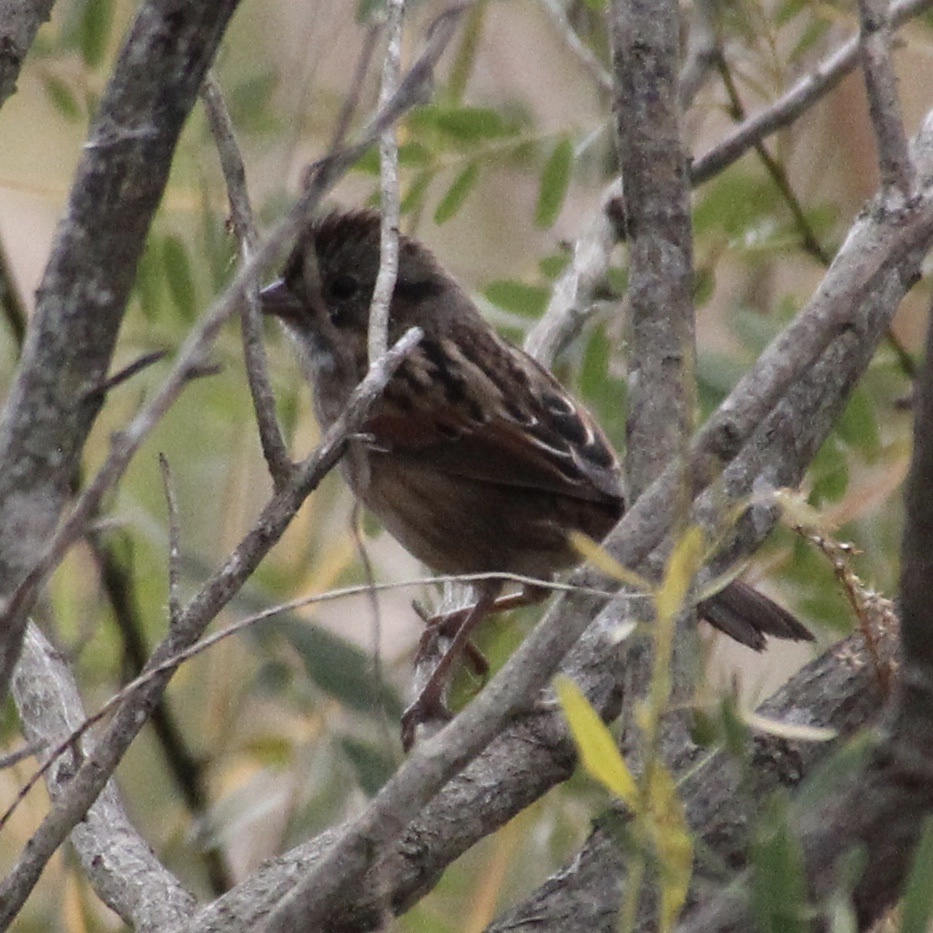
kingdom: Animalia
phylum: Chordata
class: Aves
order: Passeriformes
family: Passerellidae
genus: Melospiza
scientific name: Melospiza georgiana
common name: Swamp sparrow
